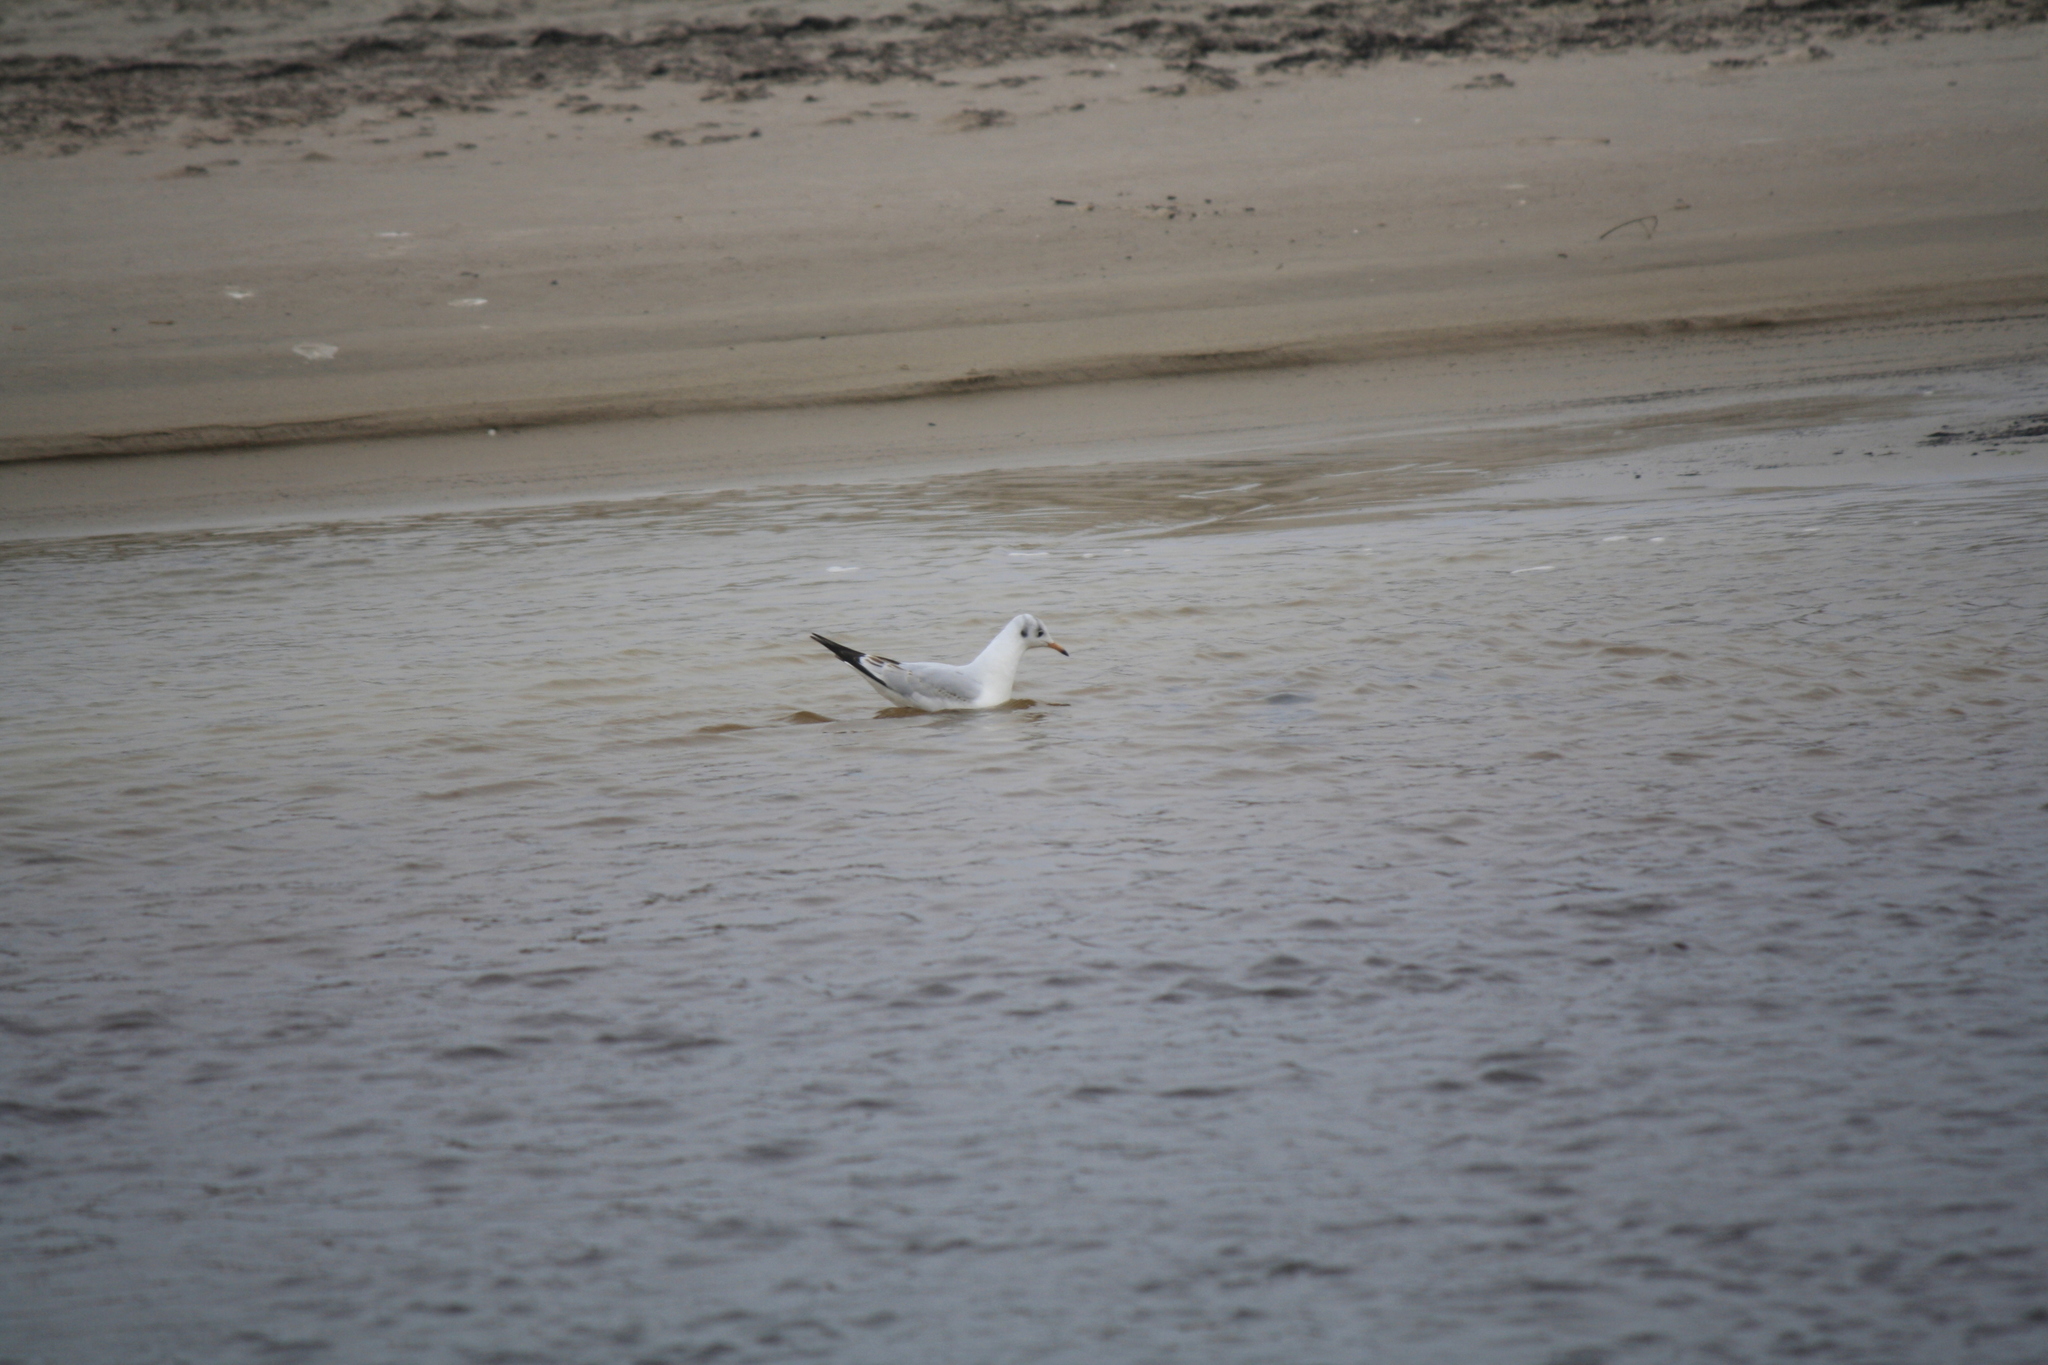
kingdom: Animalia
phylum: Chordata
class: Aves
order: Charadriiformes
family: Laridae
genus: Chroicocephalus
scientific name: Chroicocephalus ridibundus
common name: Black-headed gull
